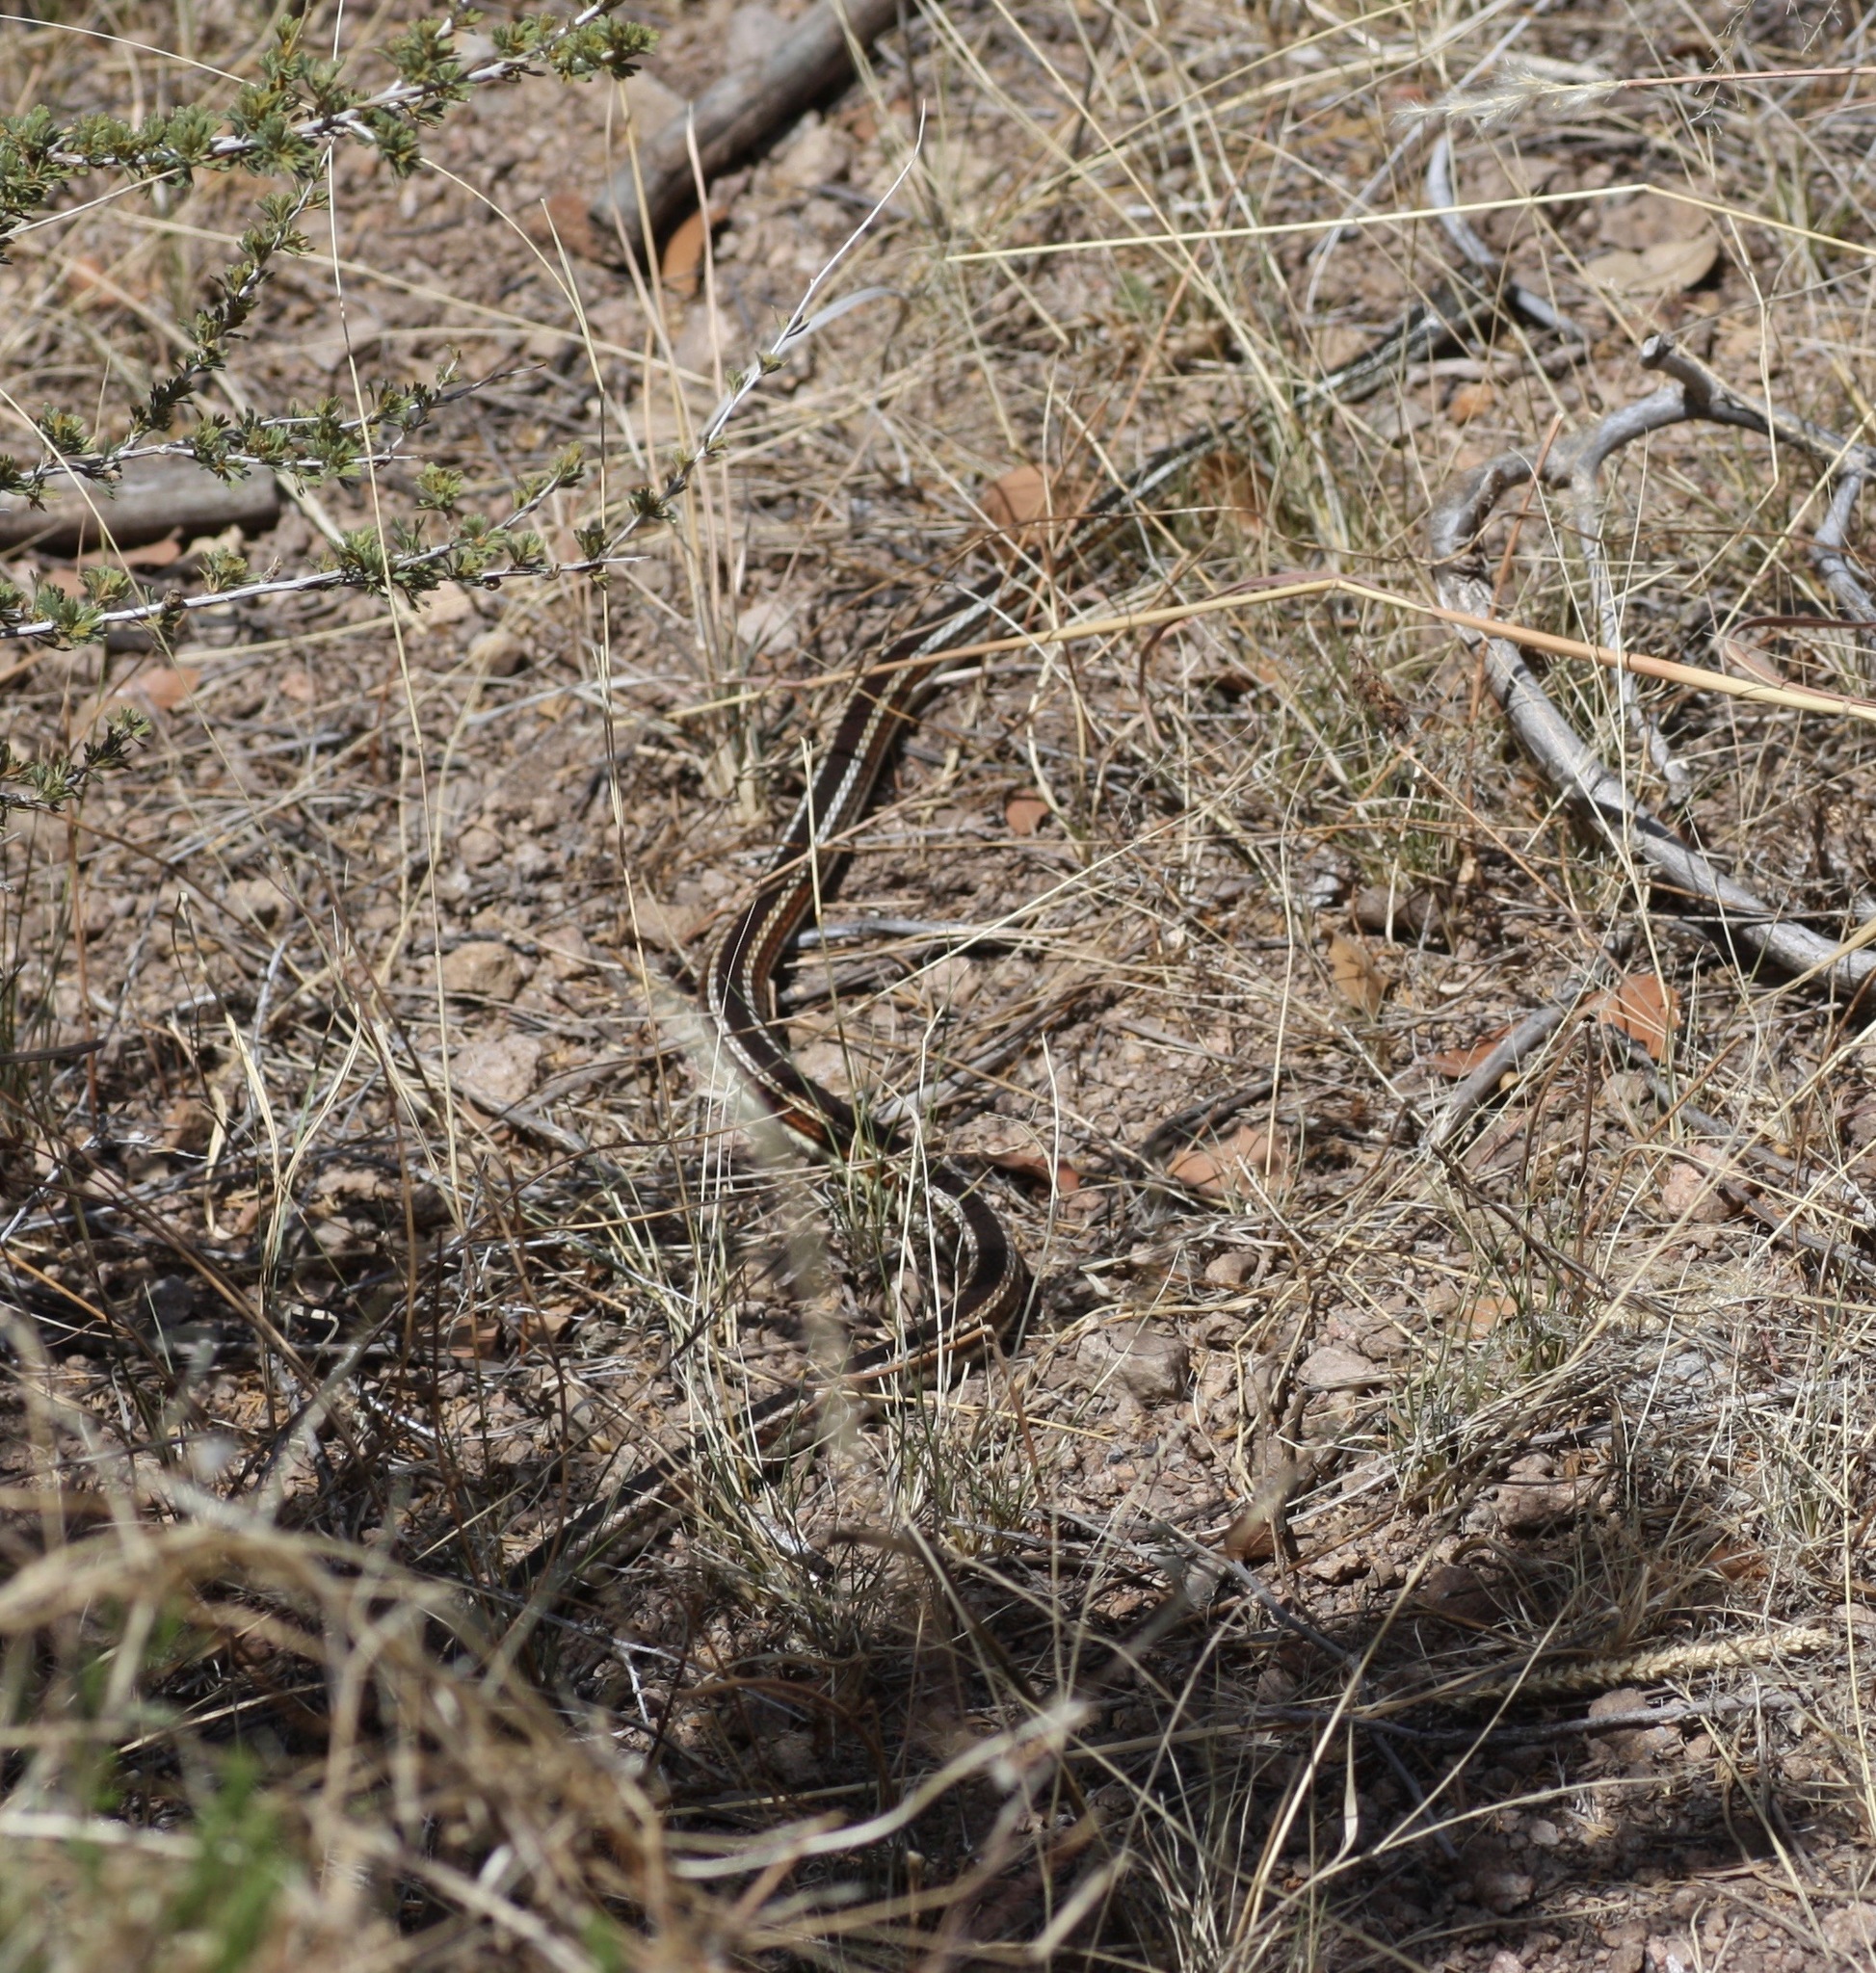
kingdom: Animalia
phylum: Chordata
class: Squamata
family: Colubridae
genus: Masticophis
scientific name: Masticophis taeniatus
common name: Striped whipsnake
